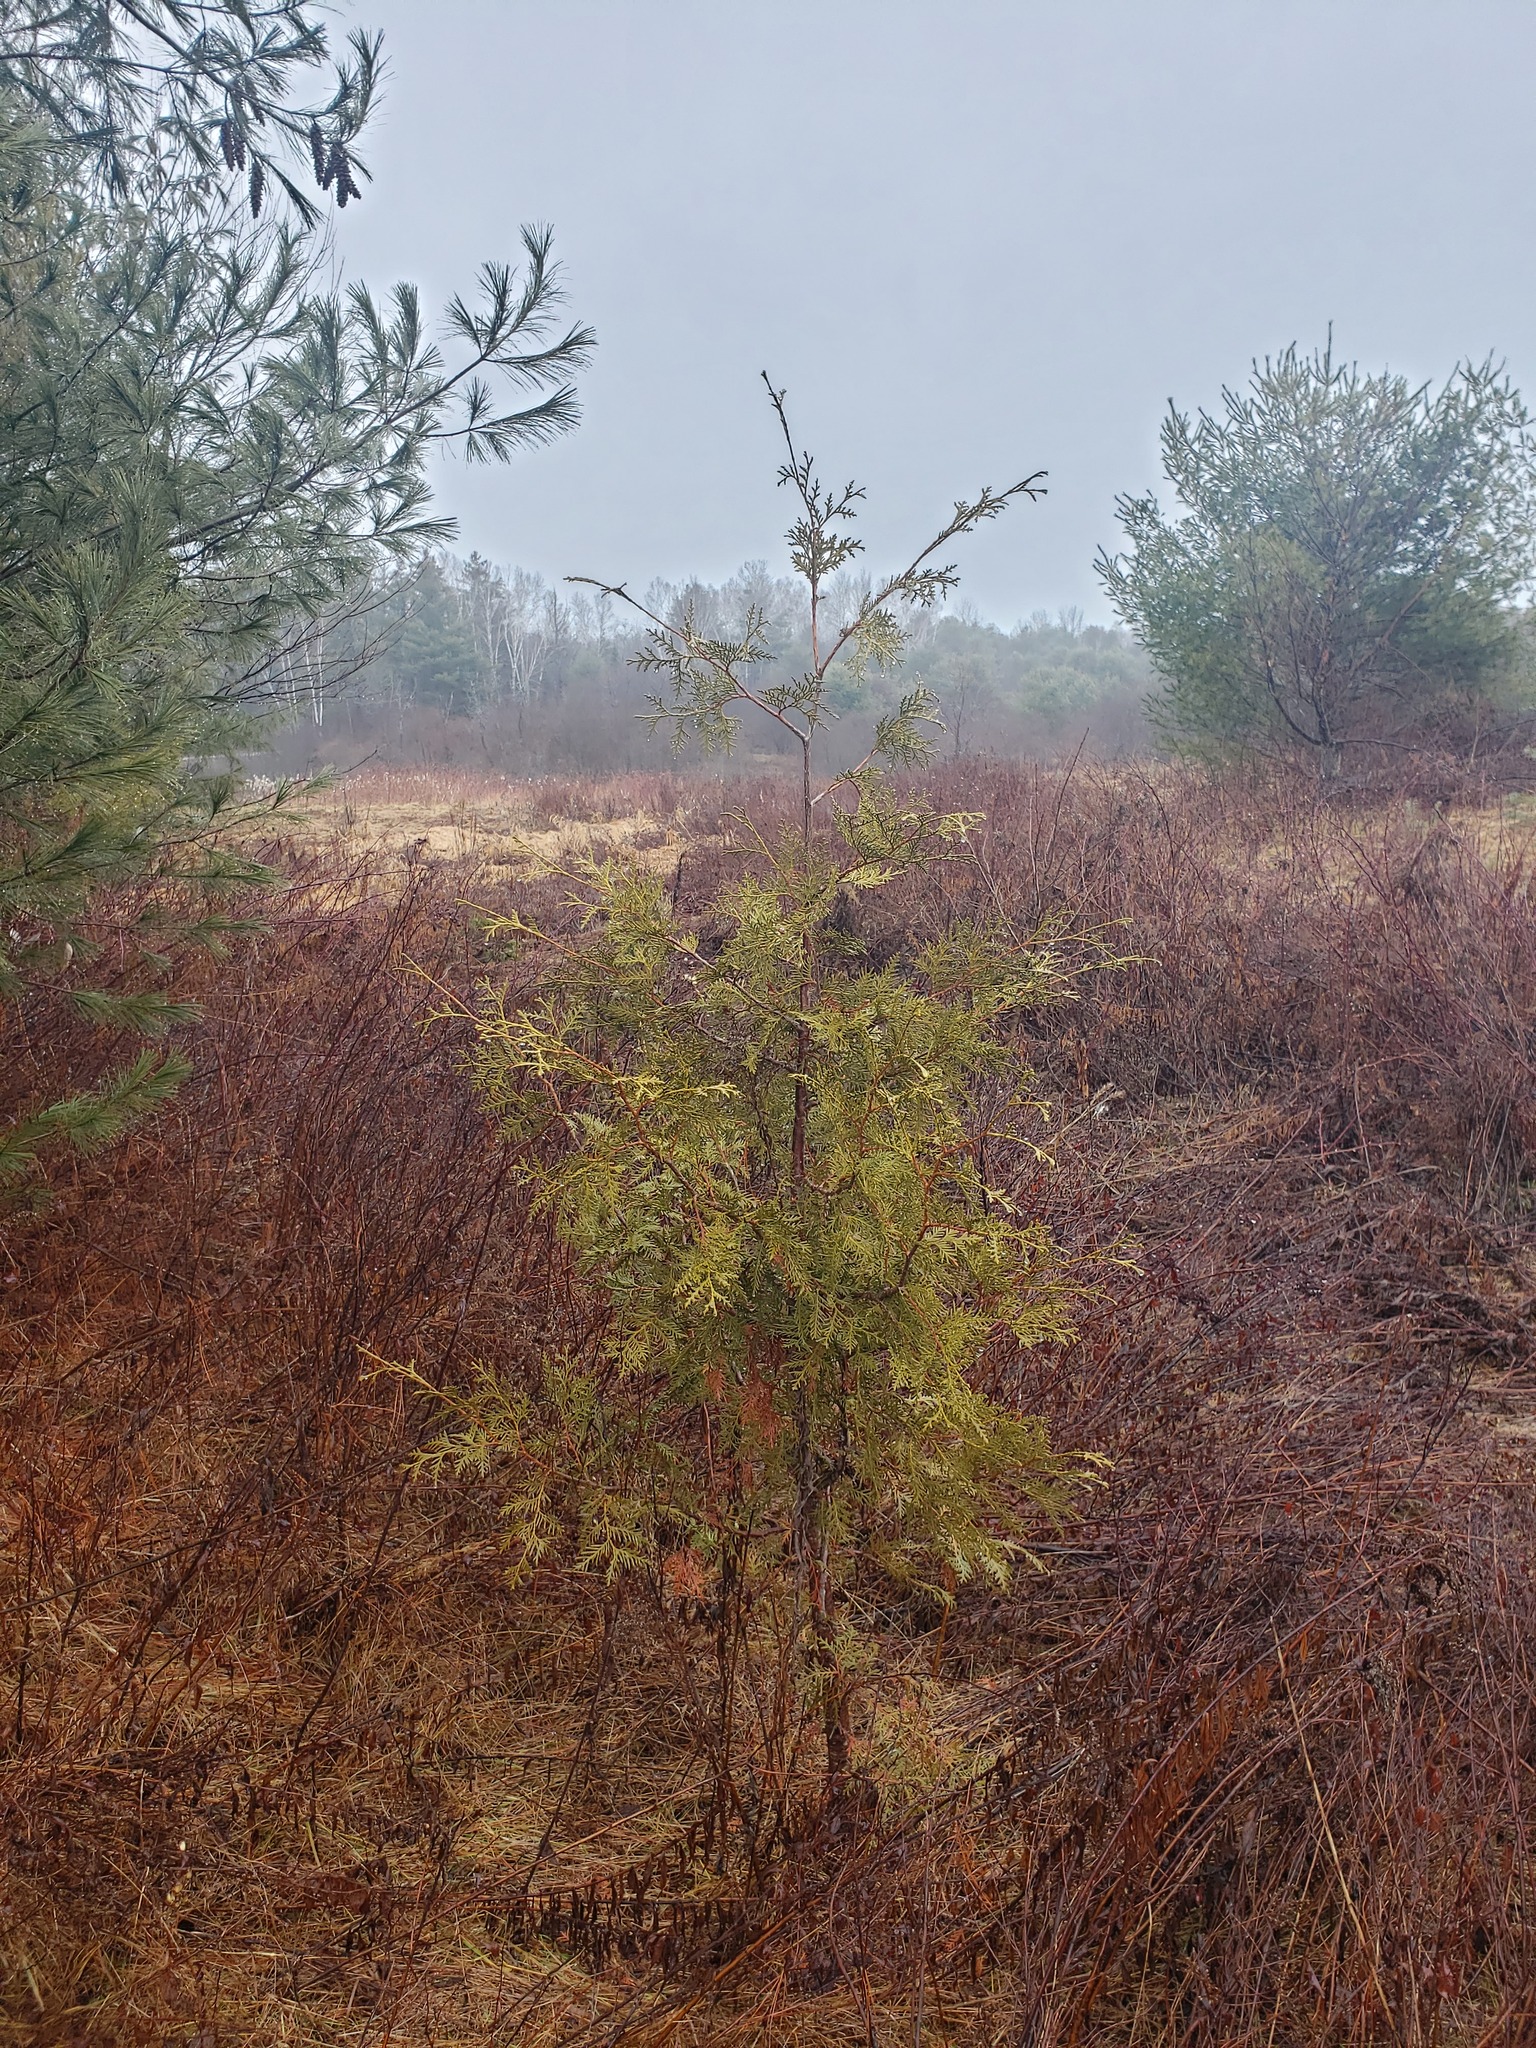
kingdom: Plantae
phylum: Tracheophyta
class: Pinopsida
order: Pinales
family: Cupressaceae
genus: Thuja
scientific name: Thuja occidentalis
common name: Northern white-cedar
